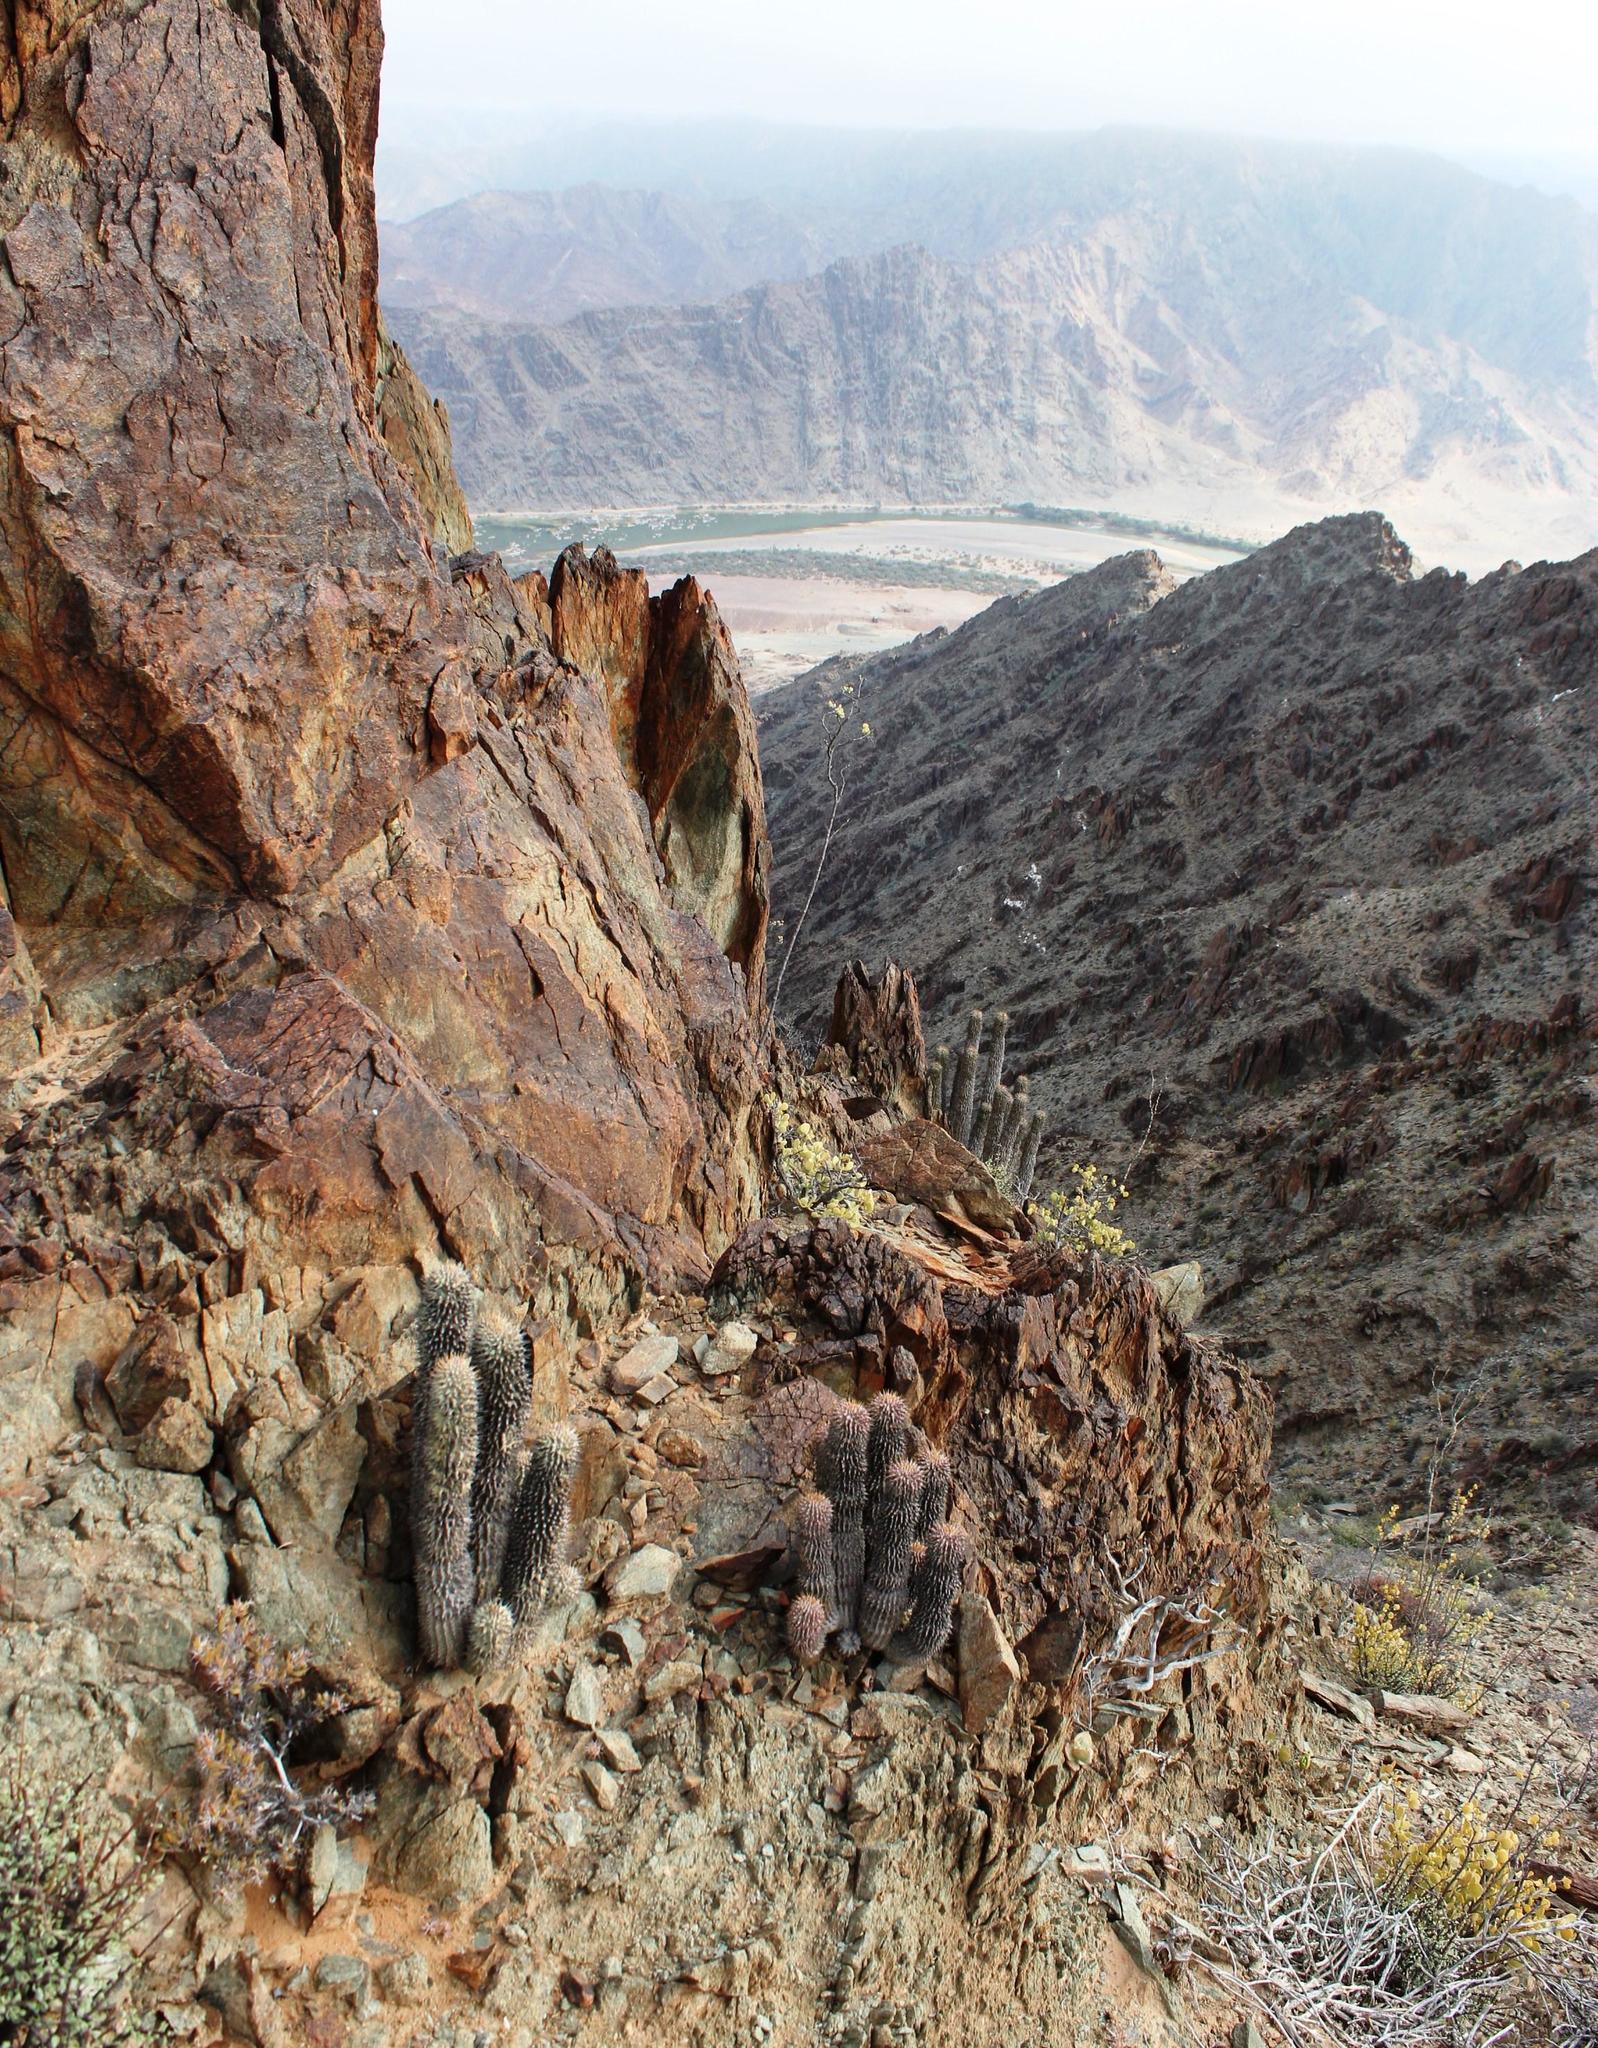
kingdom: Plantae
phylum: Tracheophyta
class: Magnoliopsida
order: Gentianales
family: Apocynaceae
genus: Ceropegia
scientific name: Ceropegia alstonii
